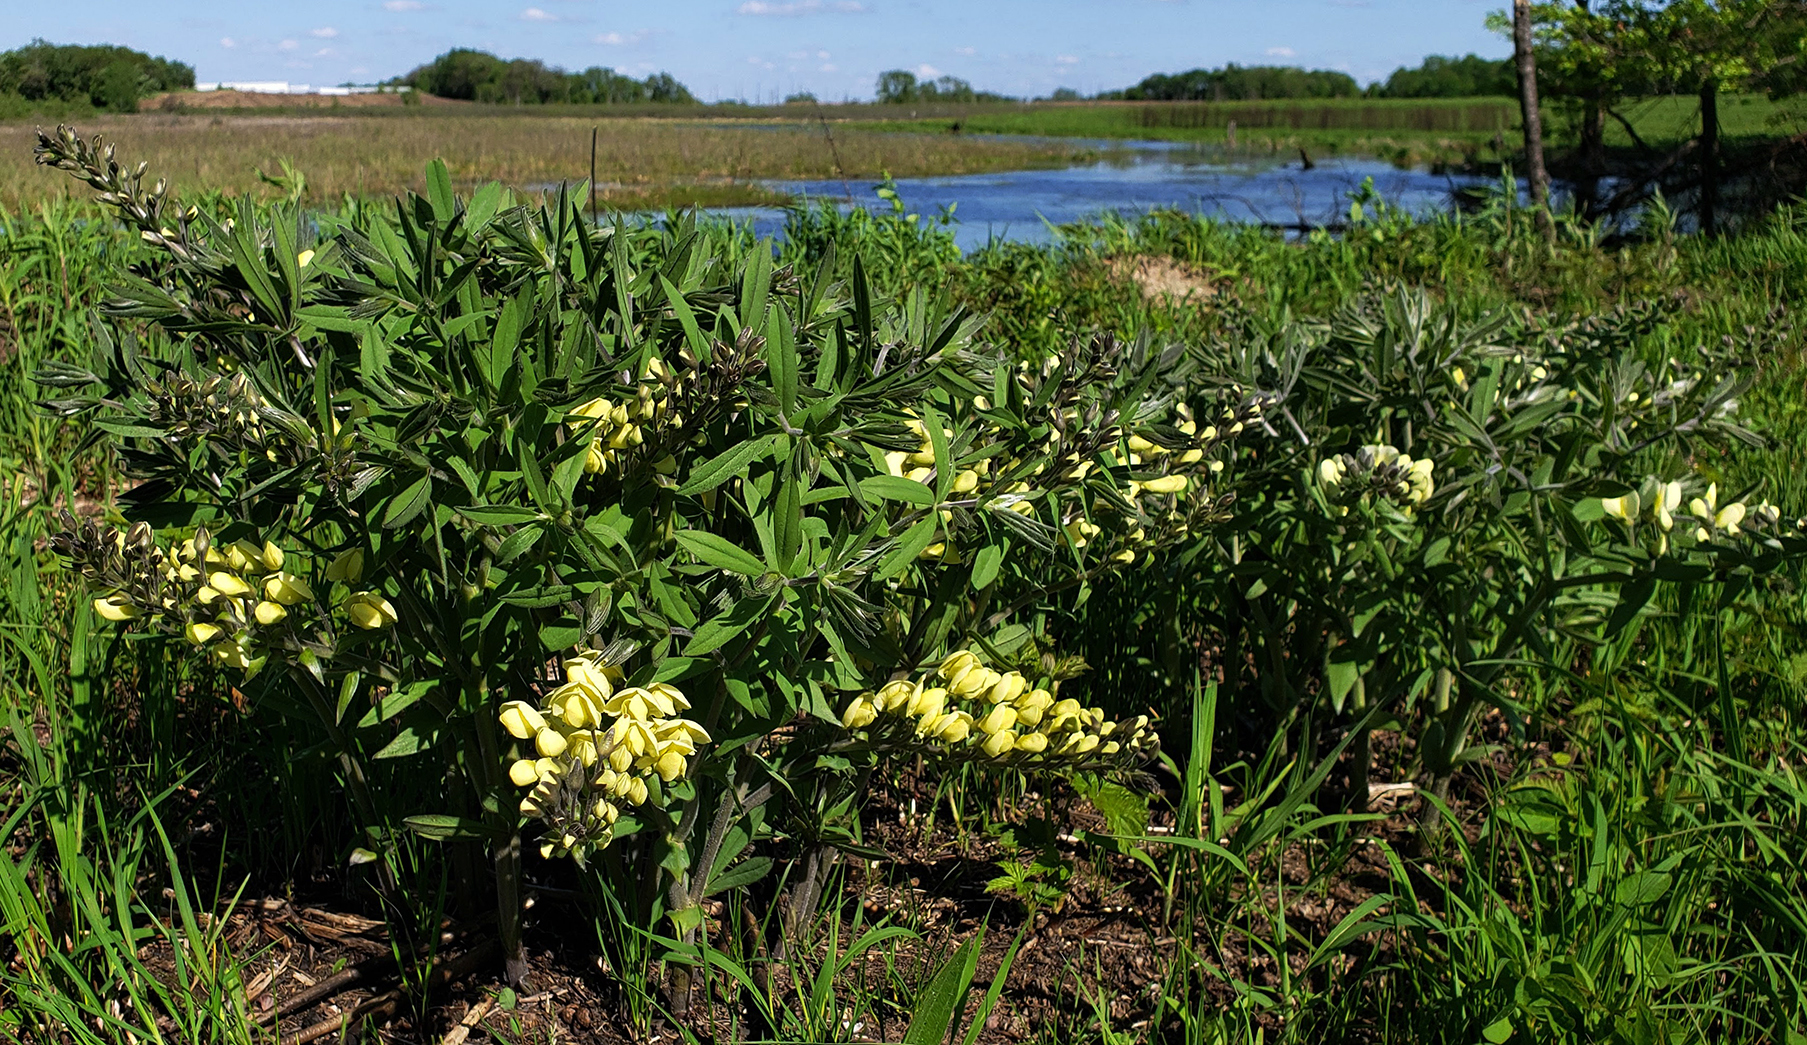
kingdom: Plantae
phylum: Tracheophyta
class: Magnoliopsida
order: Fabales
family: Fabaceae
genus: Baptisia
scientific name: Baptisia bracteata
